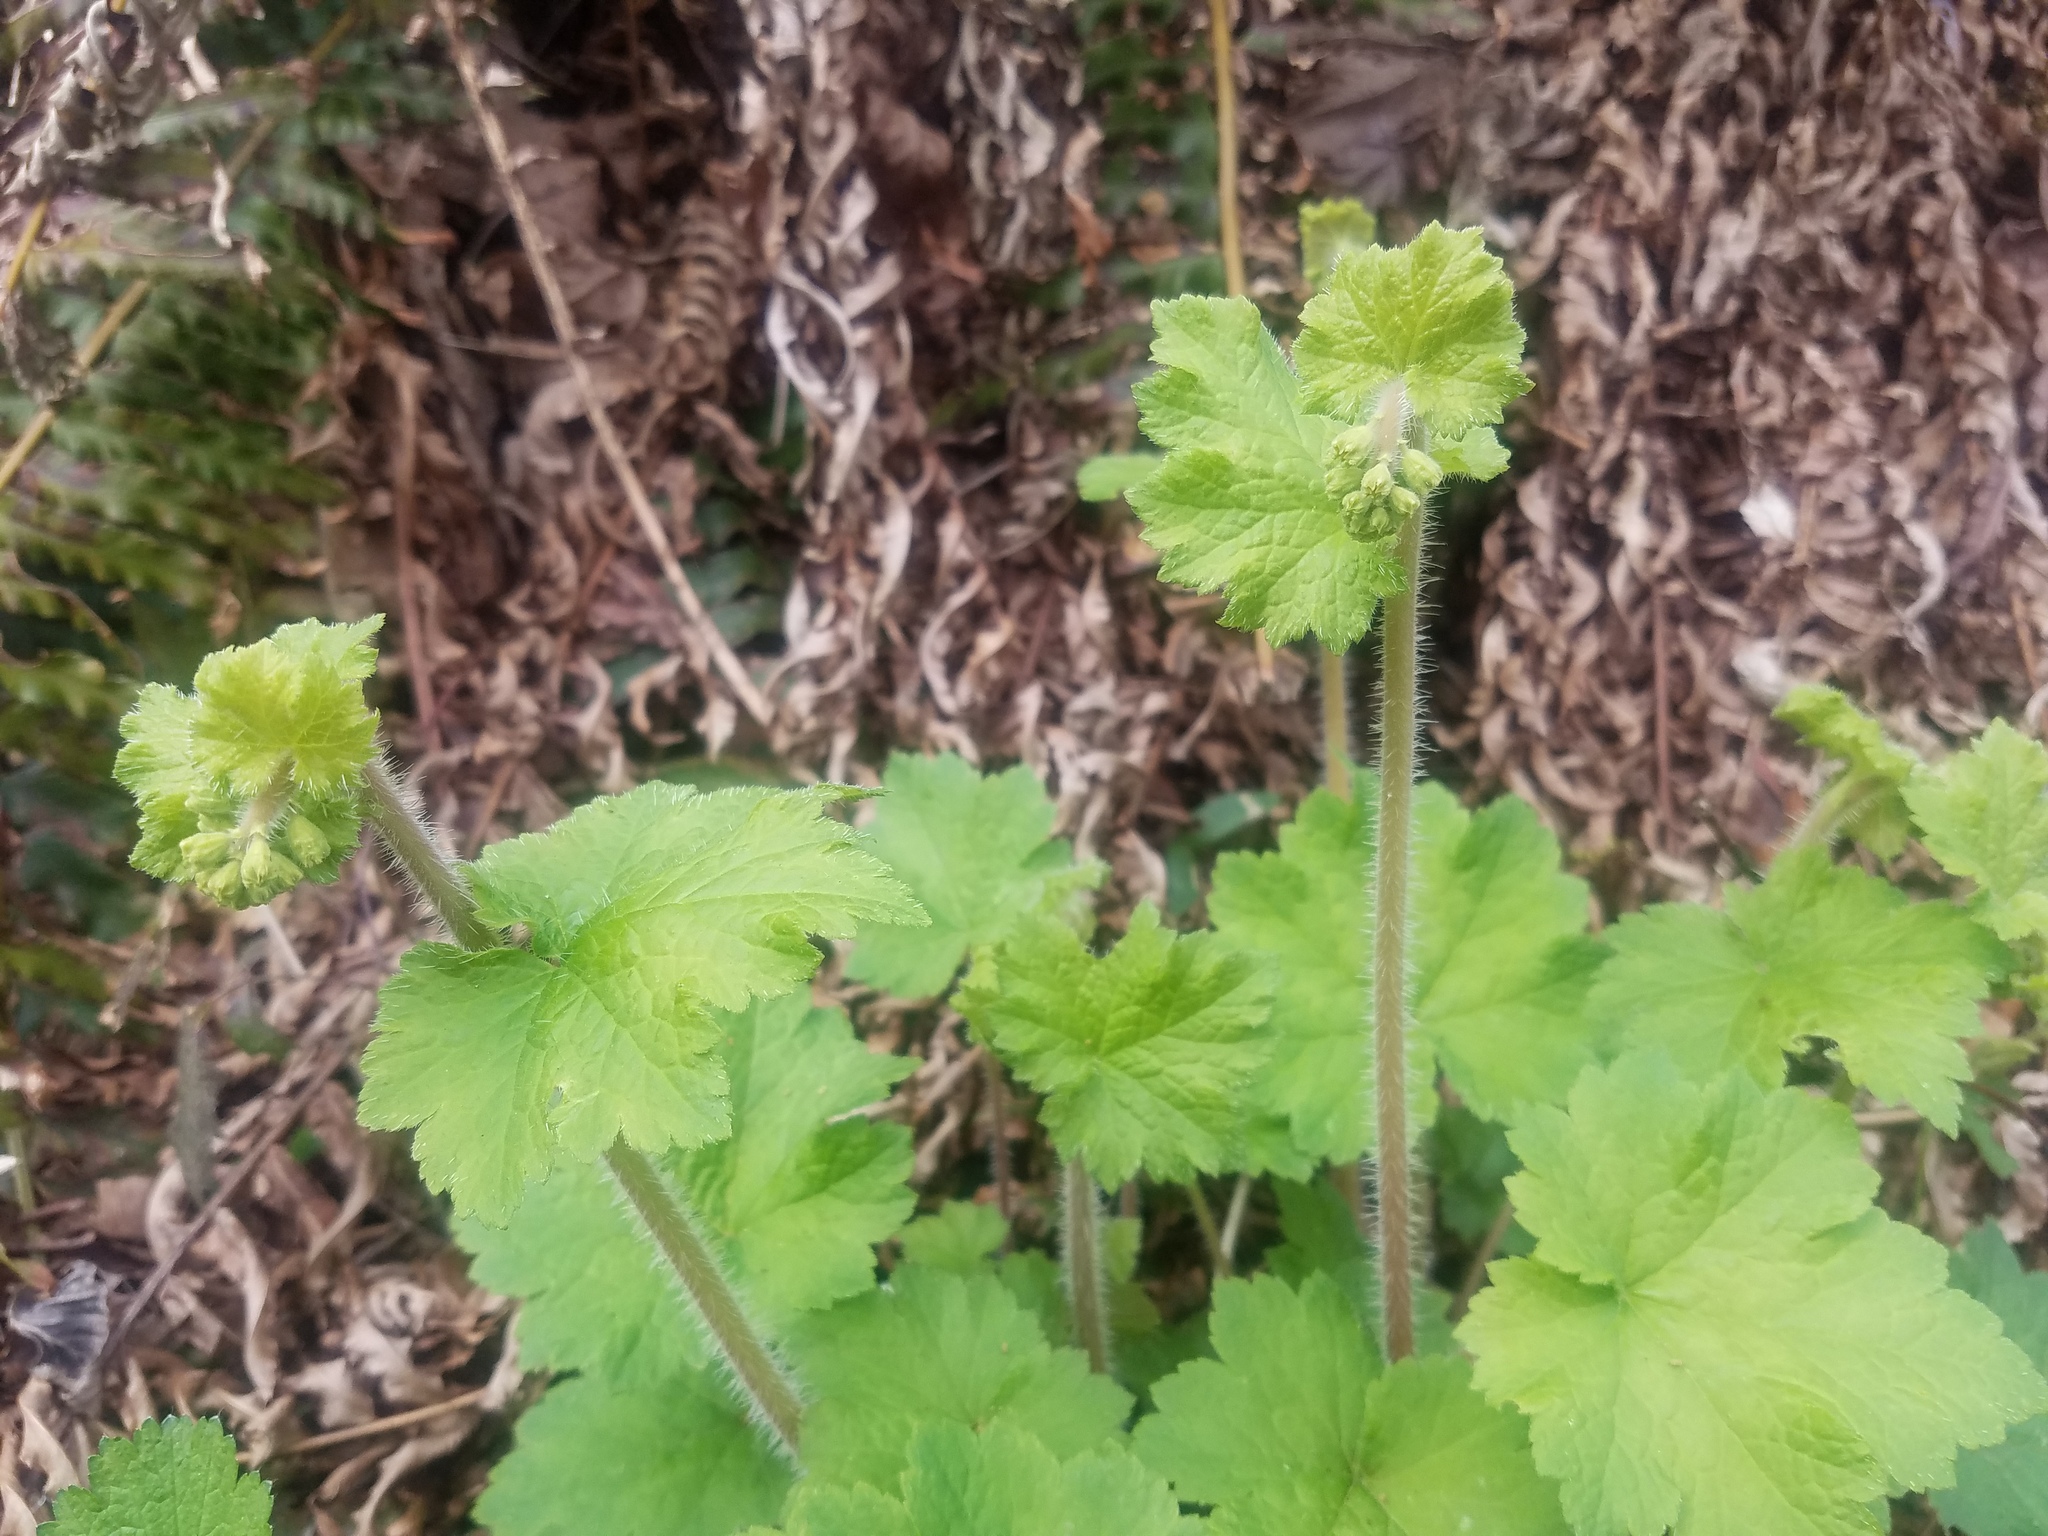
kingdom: Plantae
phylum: Tracheophyta
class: Magnoliopsida
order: Saxifragales
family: Saxifragaceae
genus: Tellima
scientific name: Tellima grandiflora
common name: Fringecups
